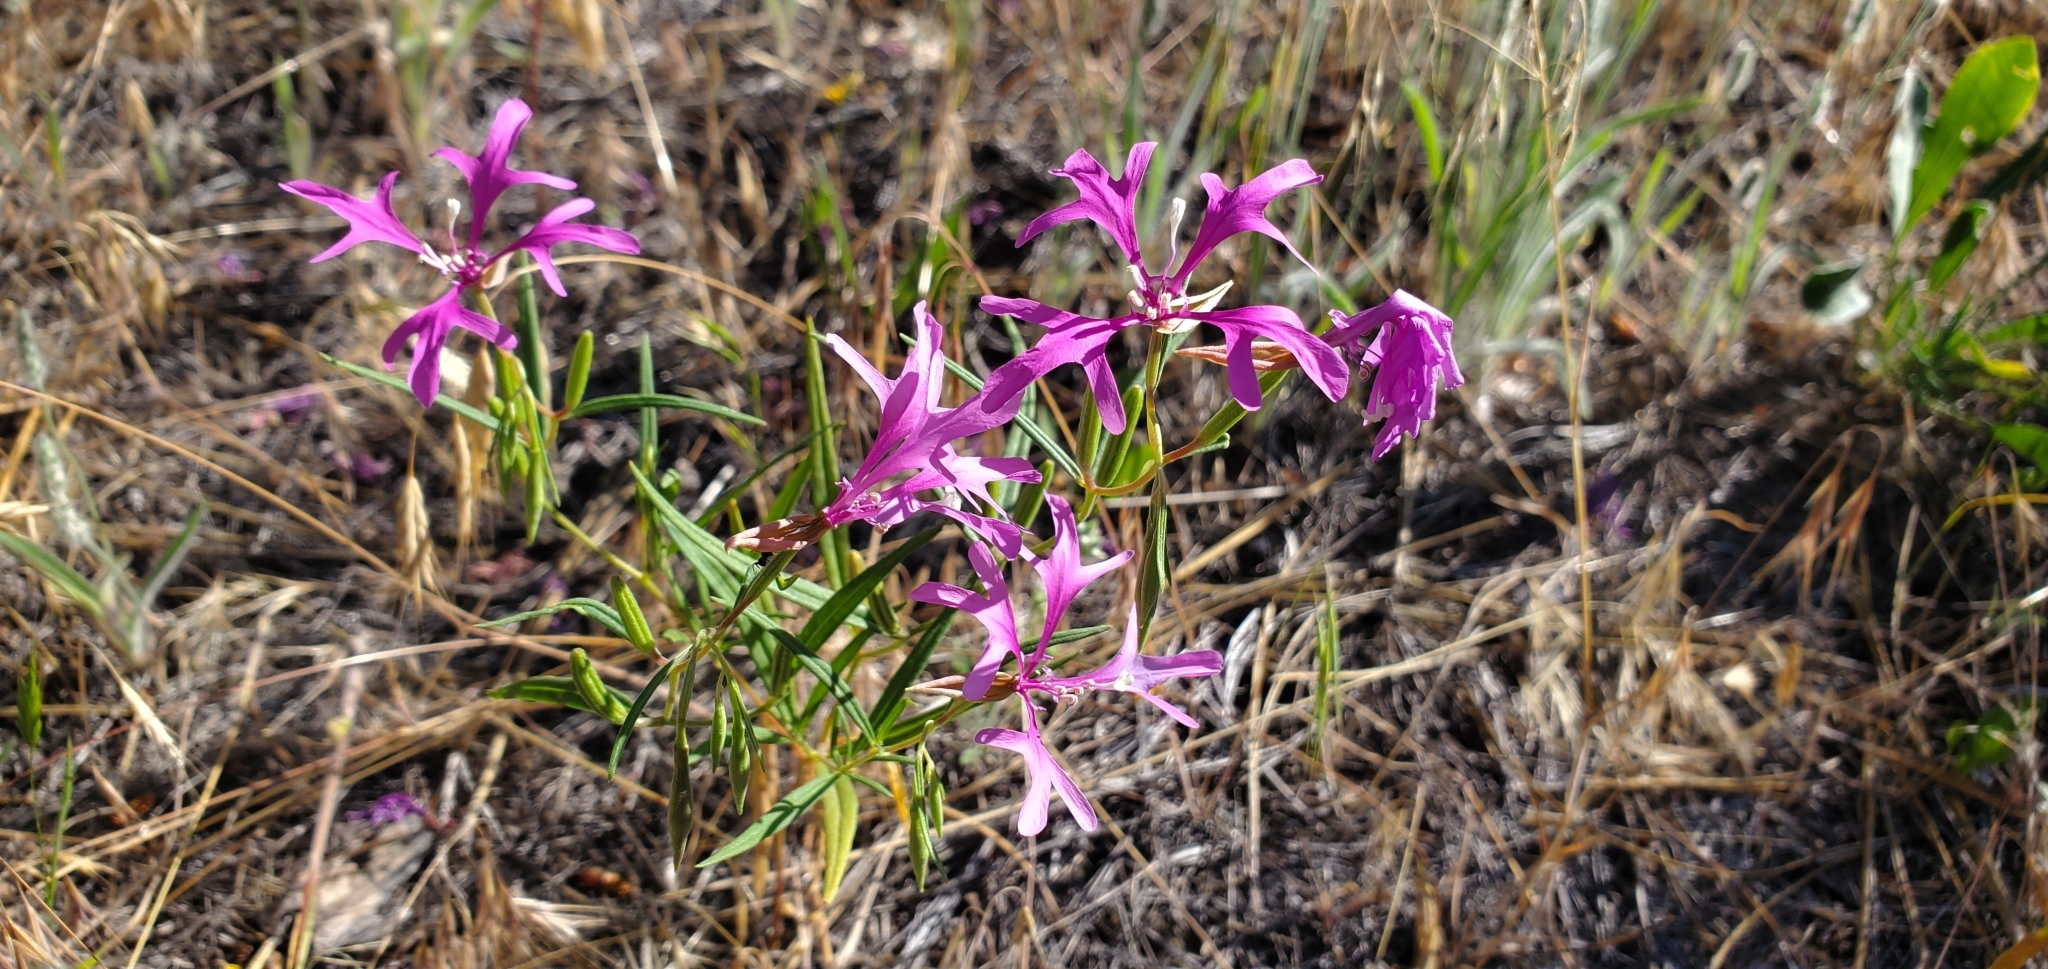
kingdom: Plantae
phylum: Tracheophyta
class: Magnoliopsida
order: Myrtales
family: Onagraceae
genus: Clarkia
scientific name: Clarkia pulchella
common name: Deer horn
